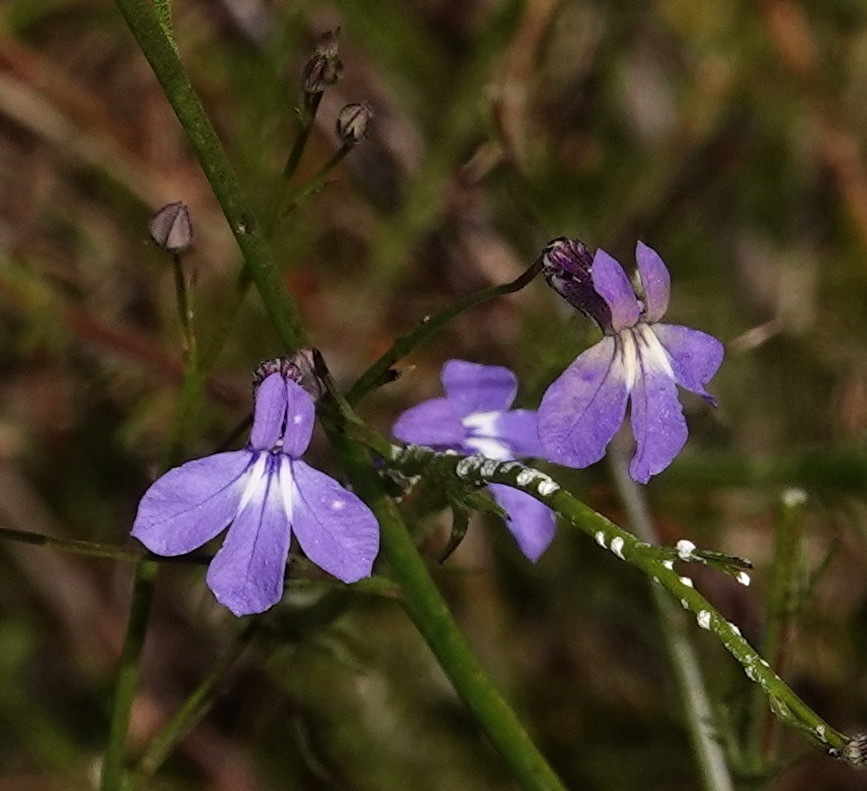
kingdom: Plantae
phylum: Tracheophyta
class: Magnoliopsida
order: Asterales
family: Campanulaceae
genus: Lobelia
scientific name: Lobelia setacea
